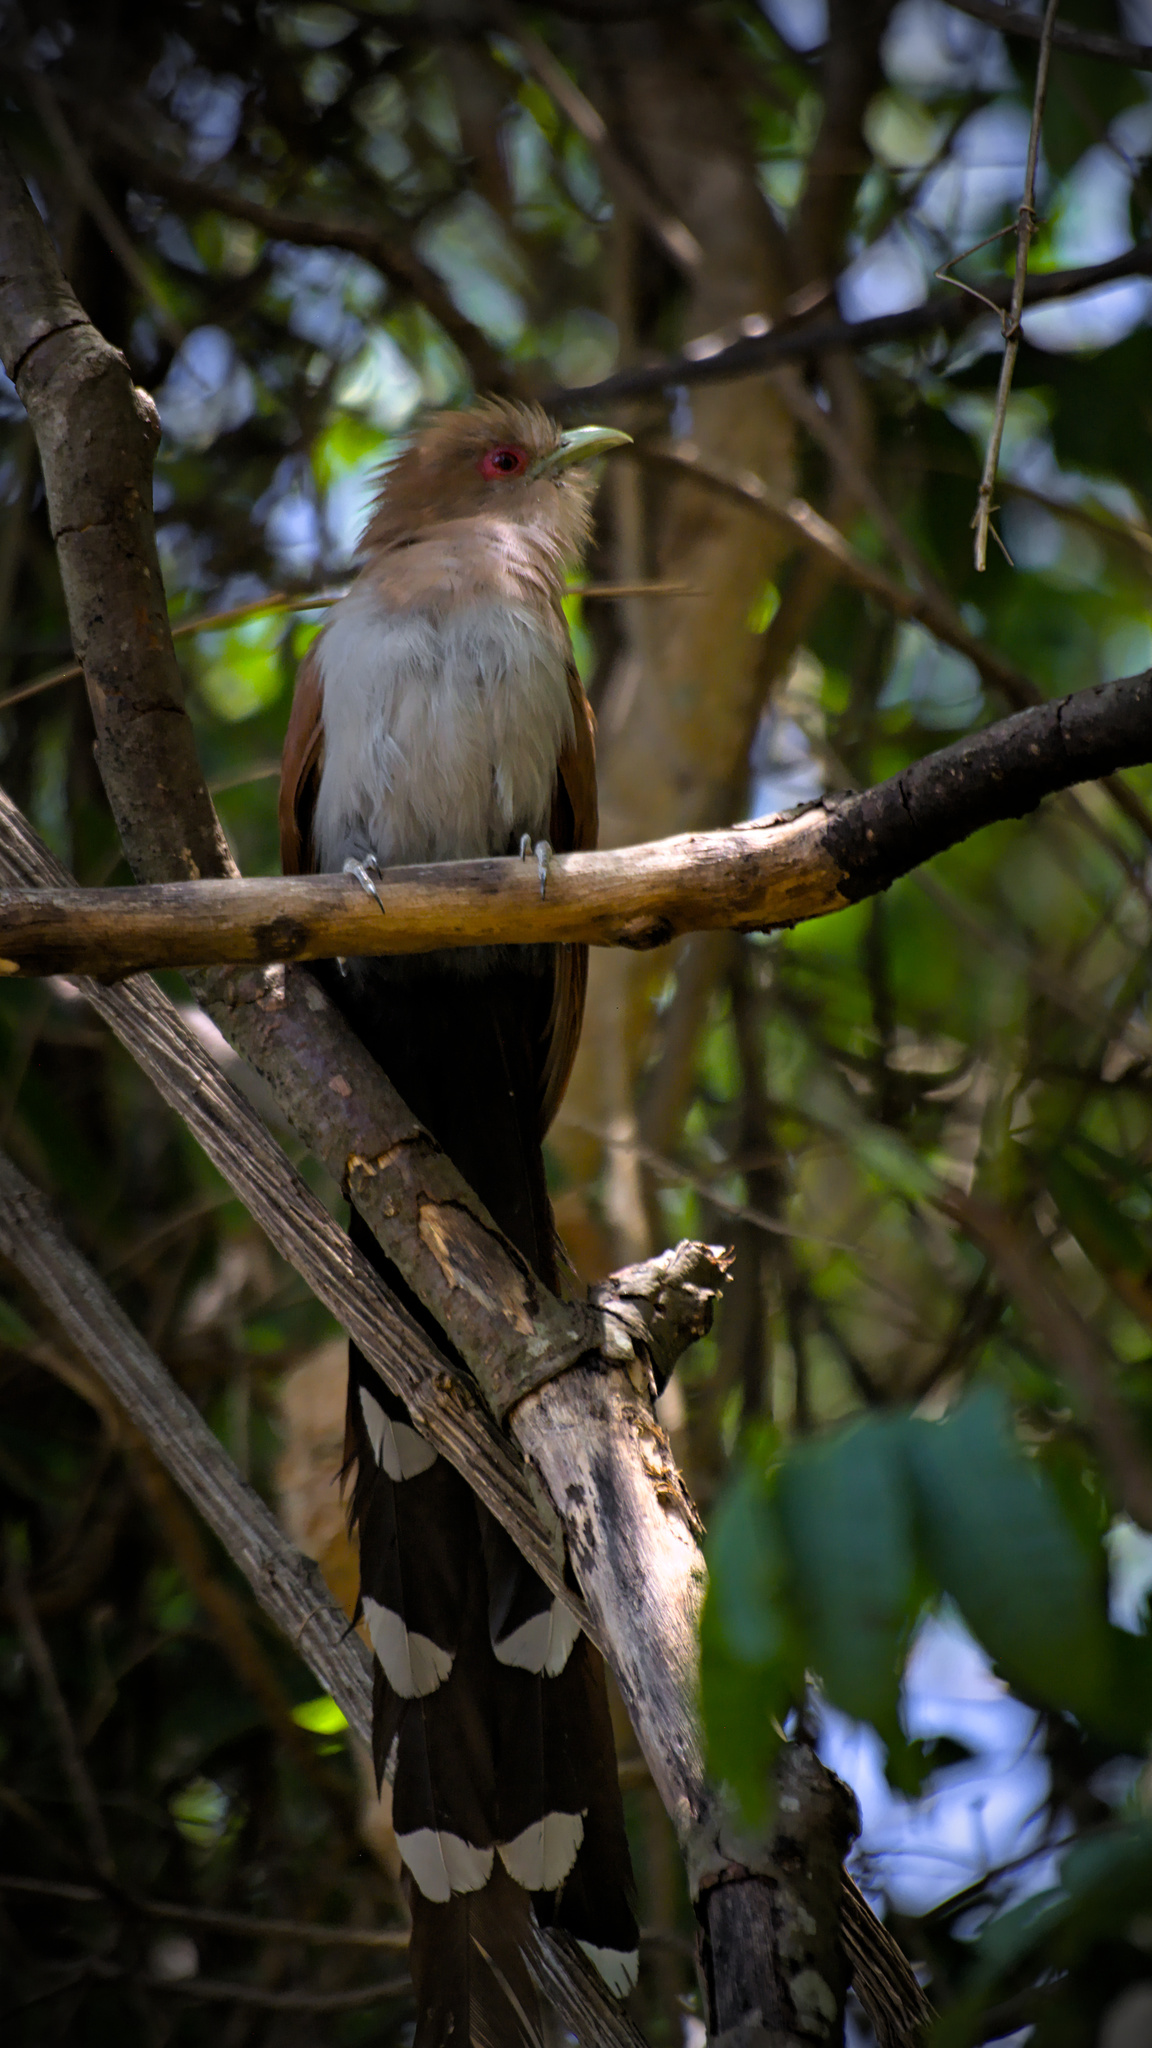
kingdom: Animalia
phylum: Chordata
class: Aves
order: Cuculiformes
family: Cuculidae
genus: Piaya
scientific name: Piaya cayana
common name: Squirrel cuckoo
